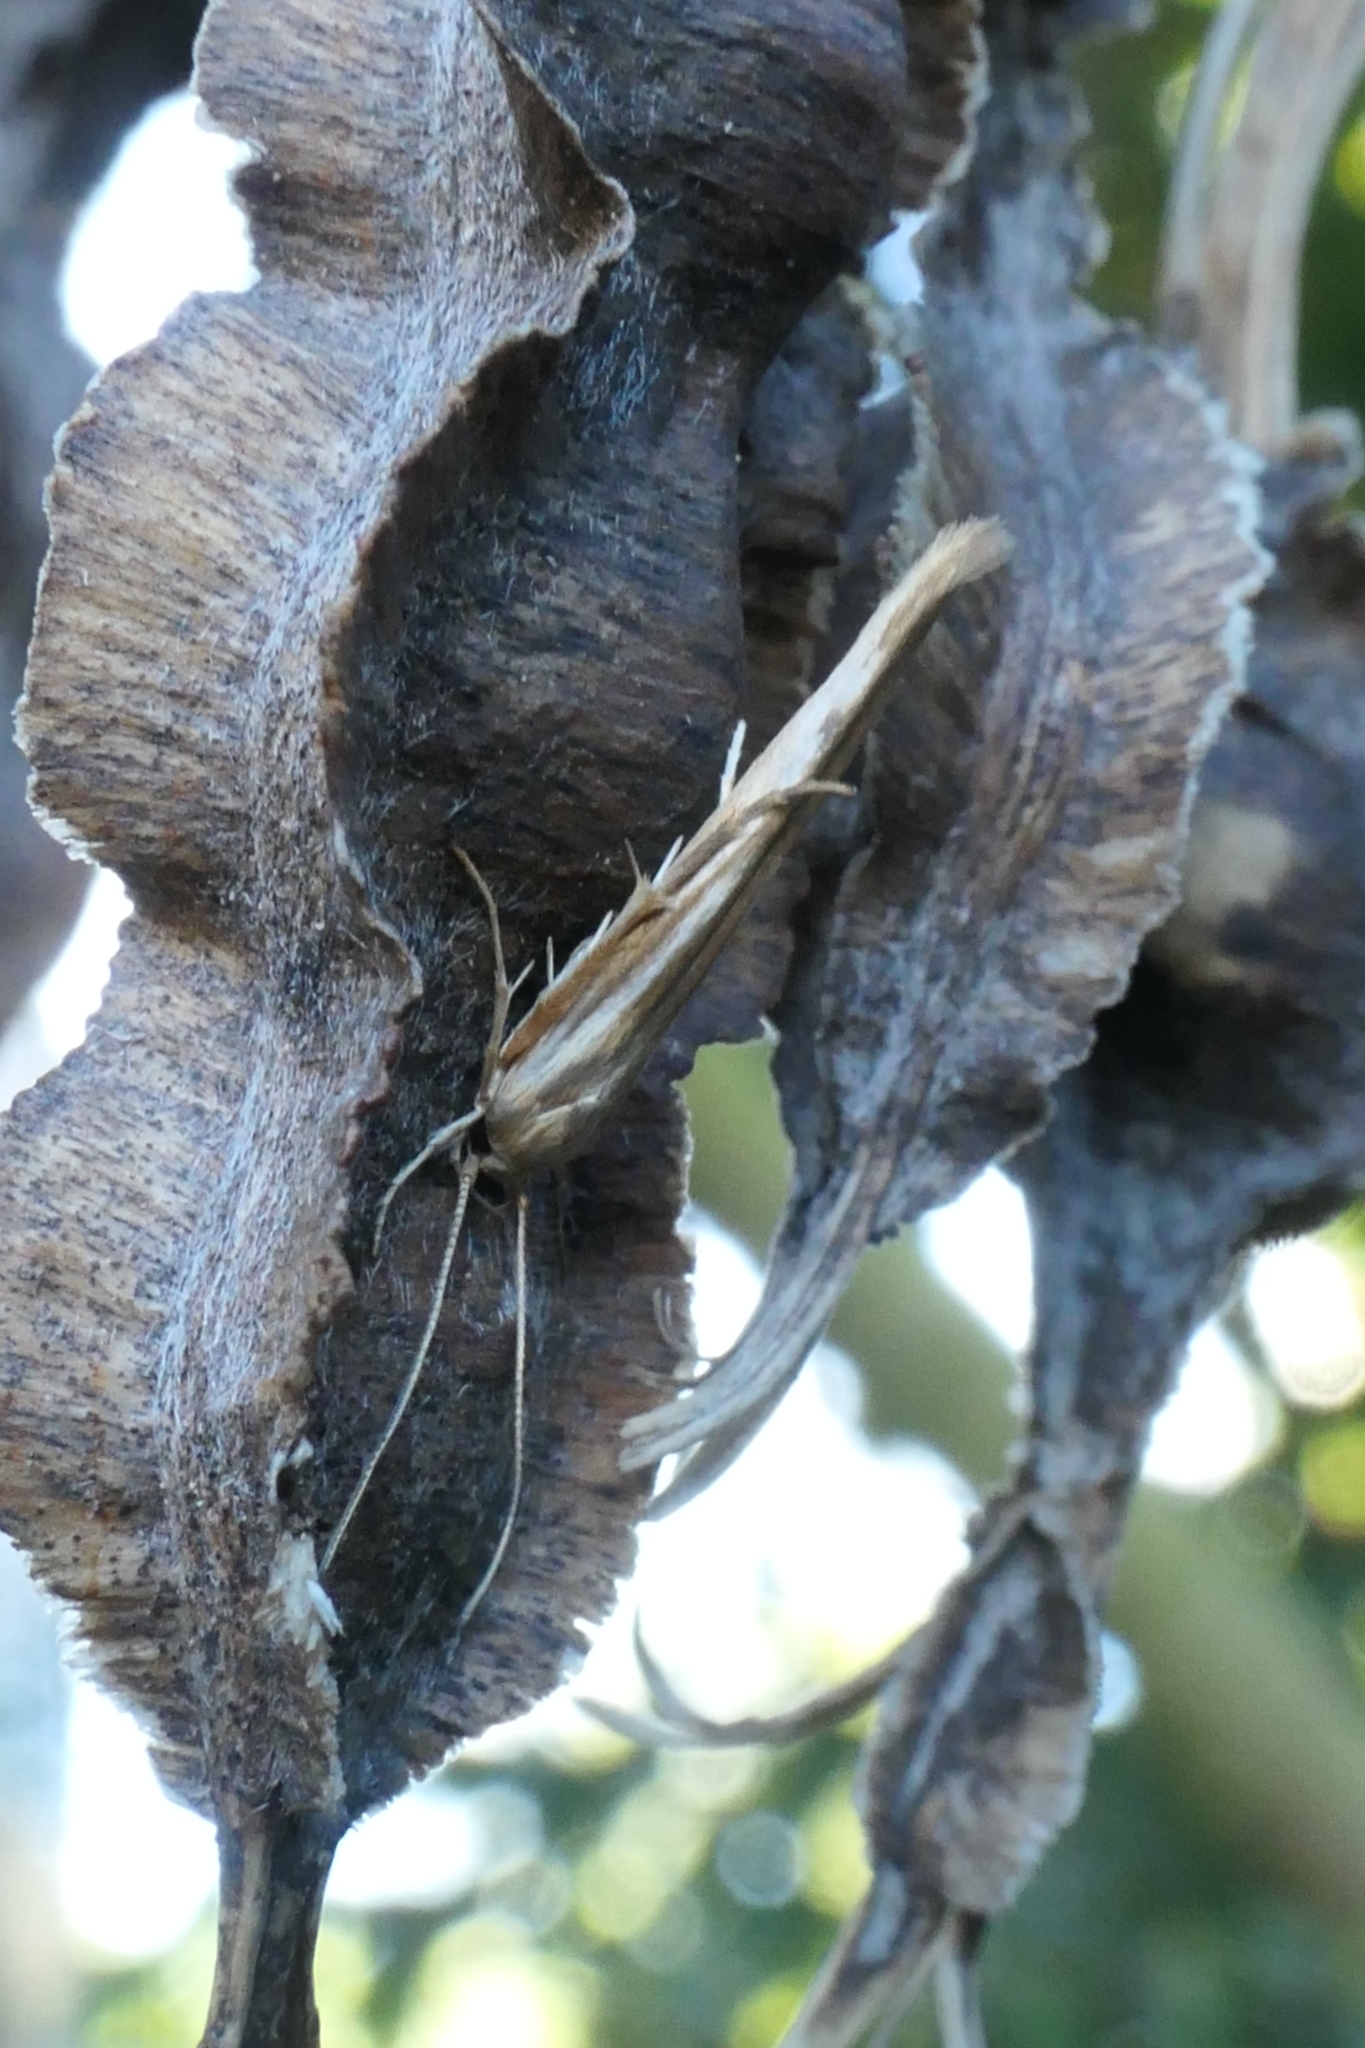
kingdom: Animalia
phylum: Arthropoda
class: Insecta
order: Lepidoptera
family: Stathmopodidae
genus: Stathmopoda
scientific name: Stathmopoda aposema
